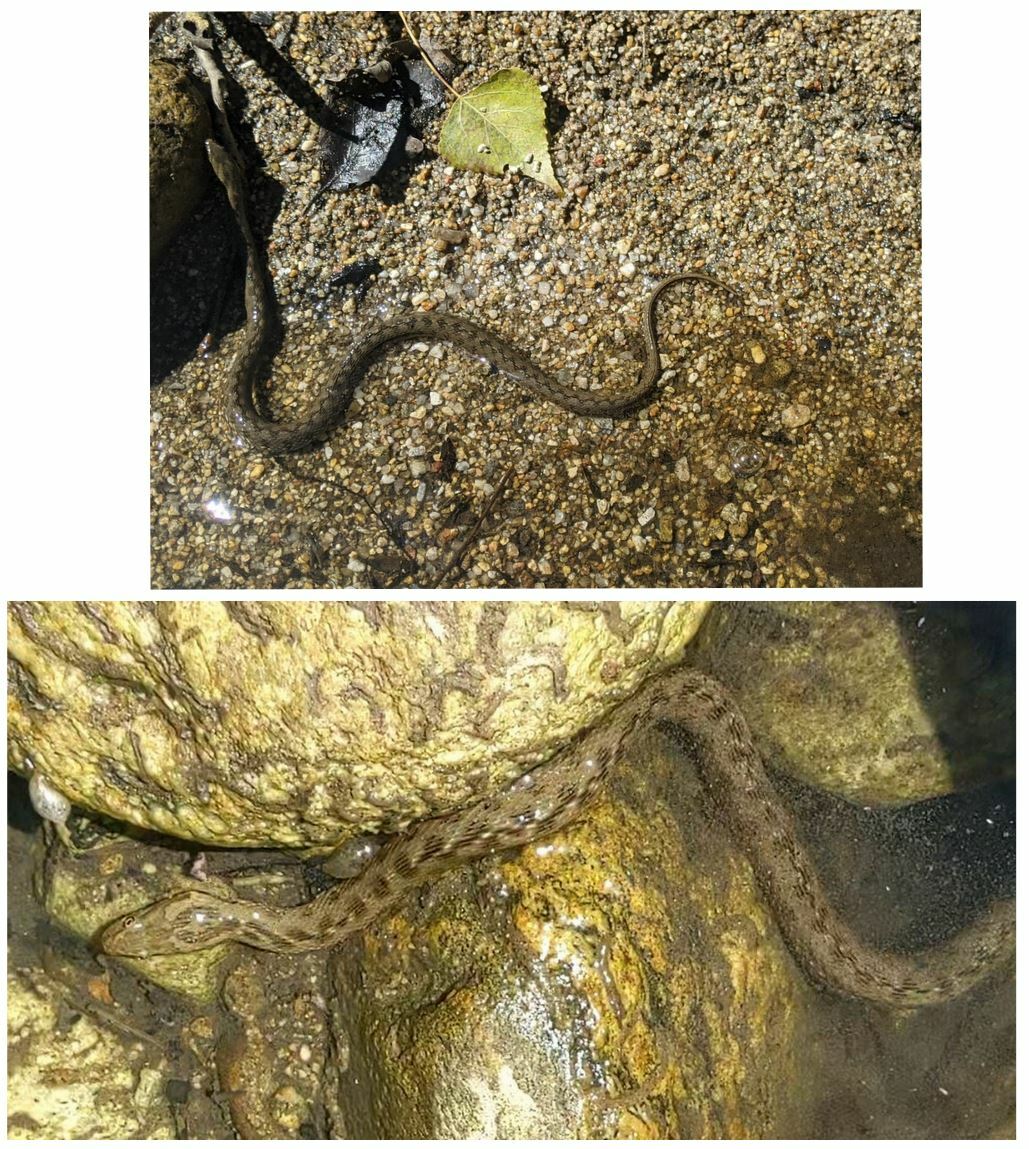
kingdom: Animalia
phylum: Chordata
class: Squamata
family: Colubridae
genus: Natrix
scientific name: Natrix maura
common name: Viperine water snake
